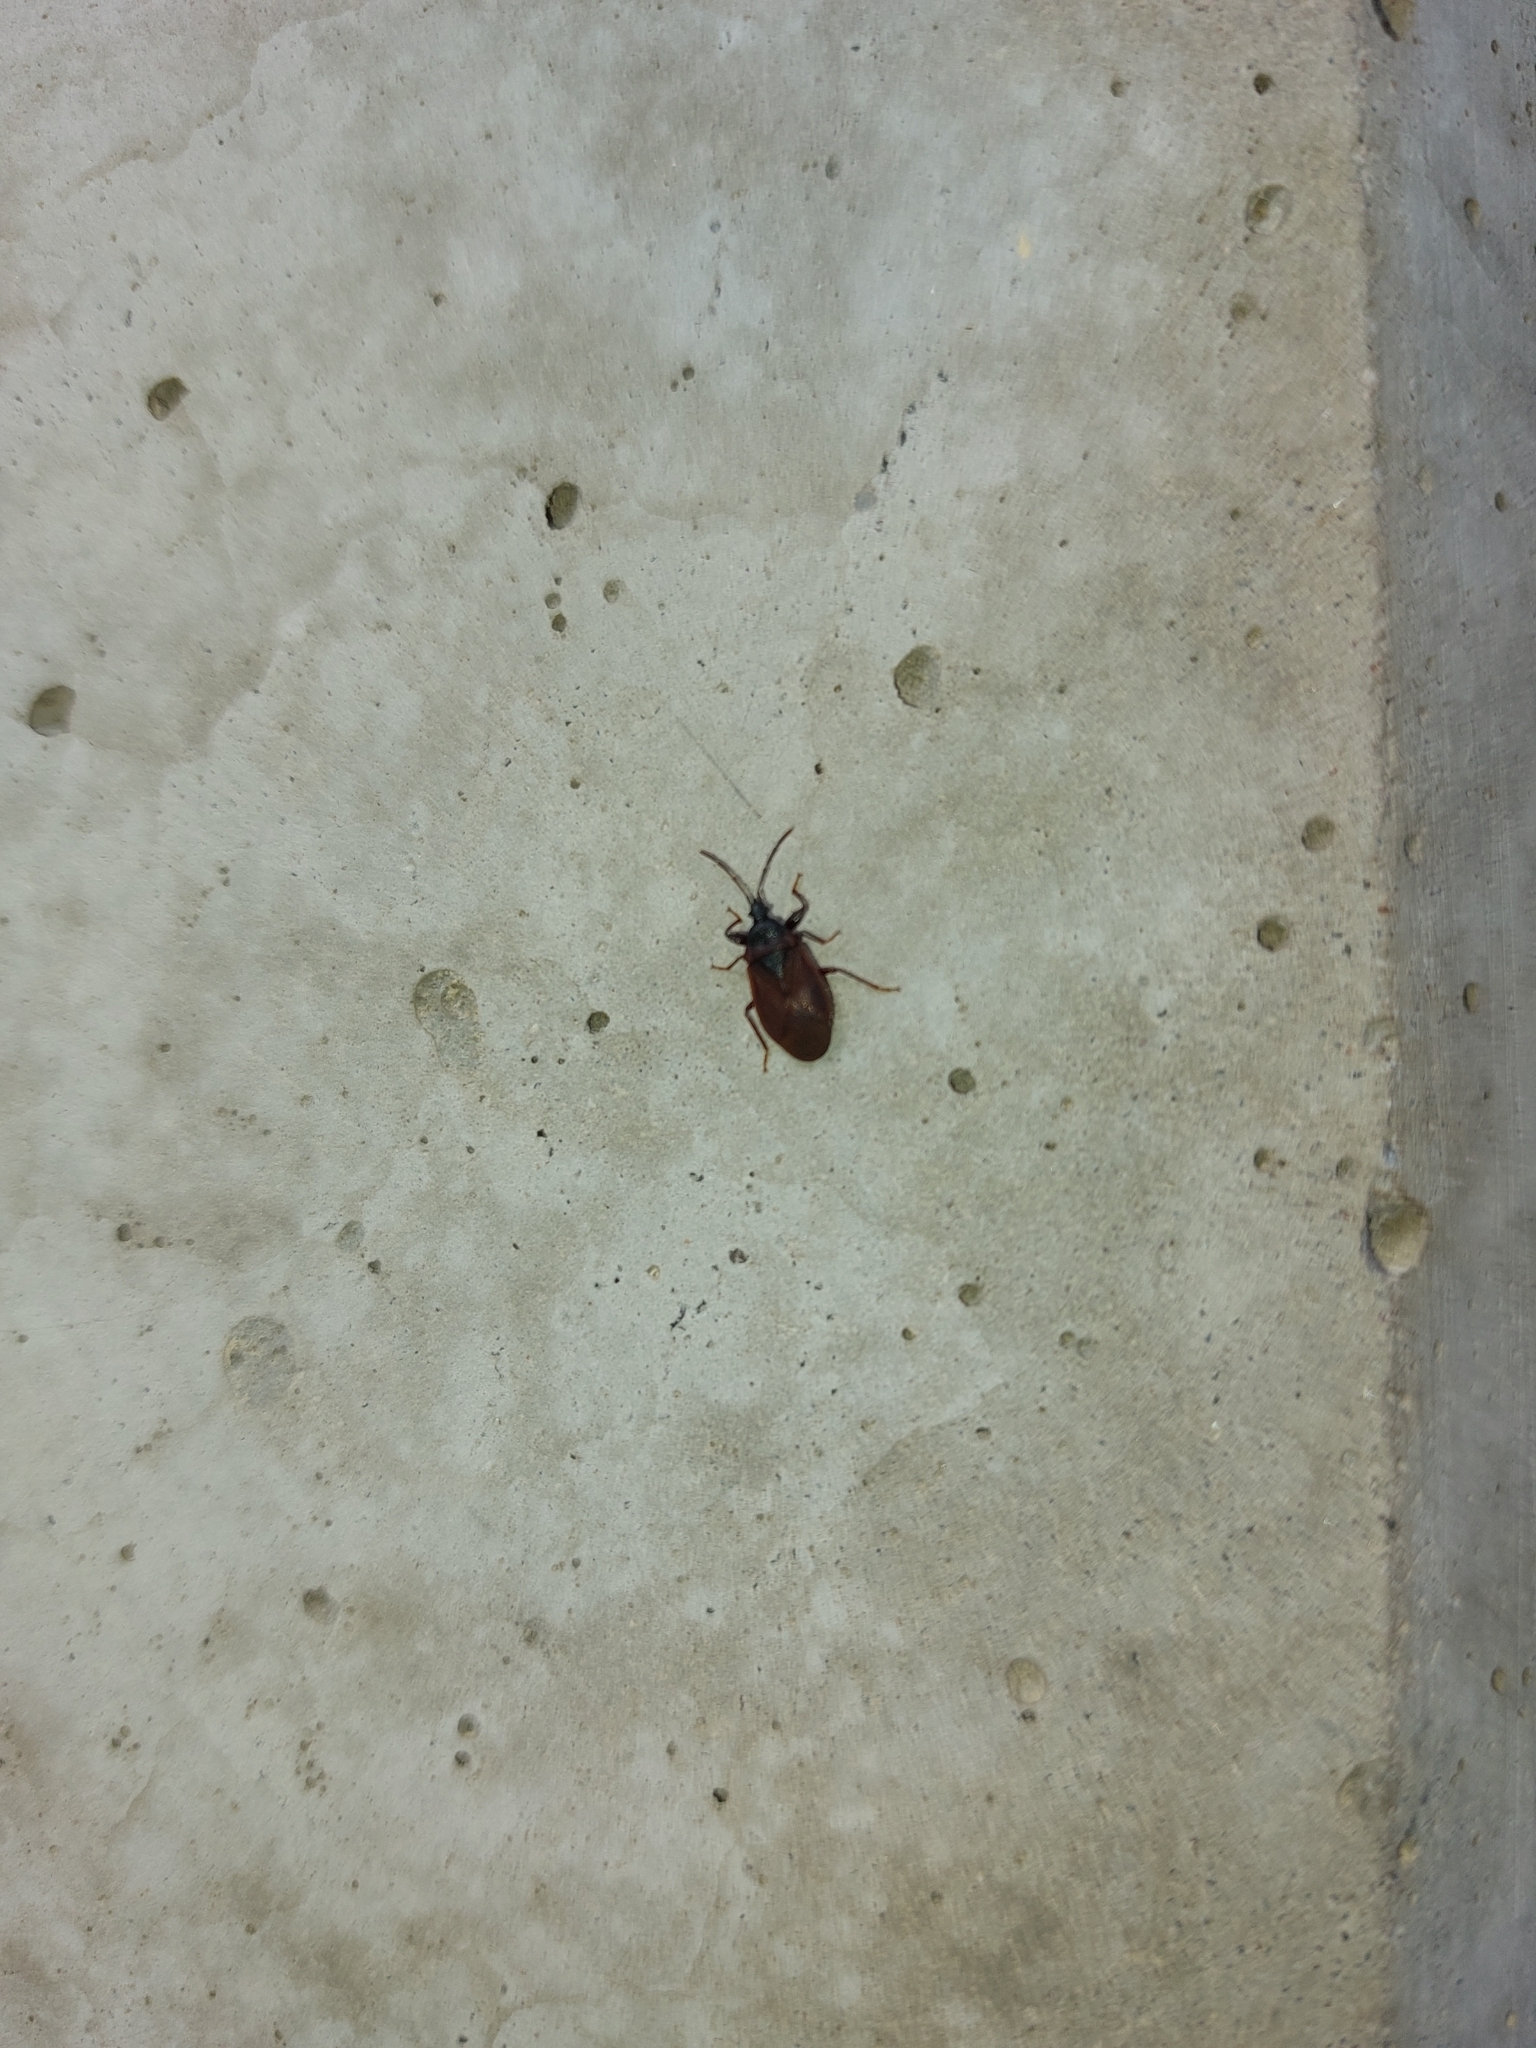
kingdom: Animalia
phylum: Arthropoda
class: Insecta
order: Hemiptera
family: Rhyparochromidae
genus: Gastrodes
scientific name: Gastrodes grossipes
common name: Pine cone bug
